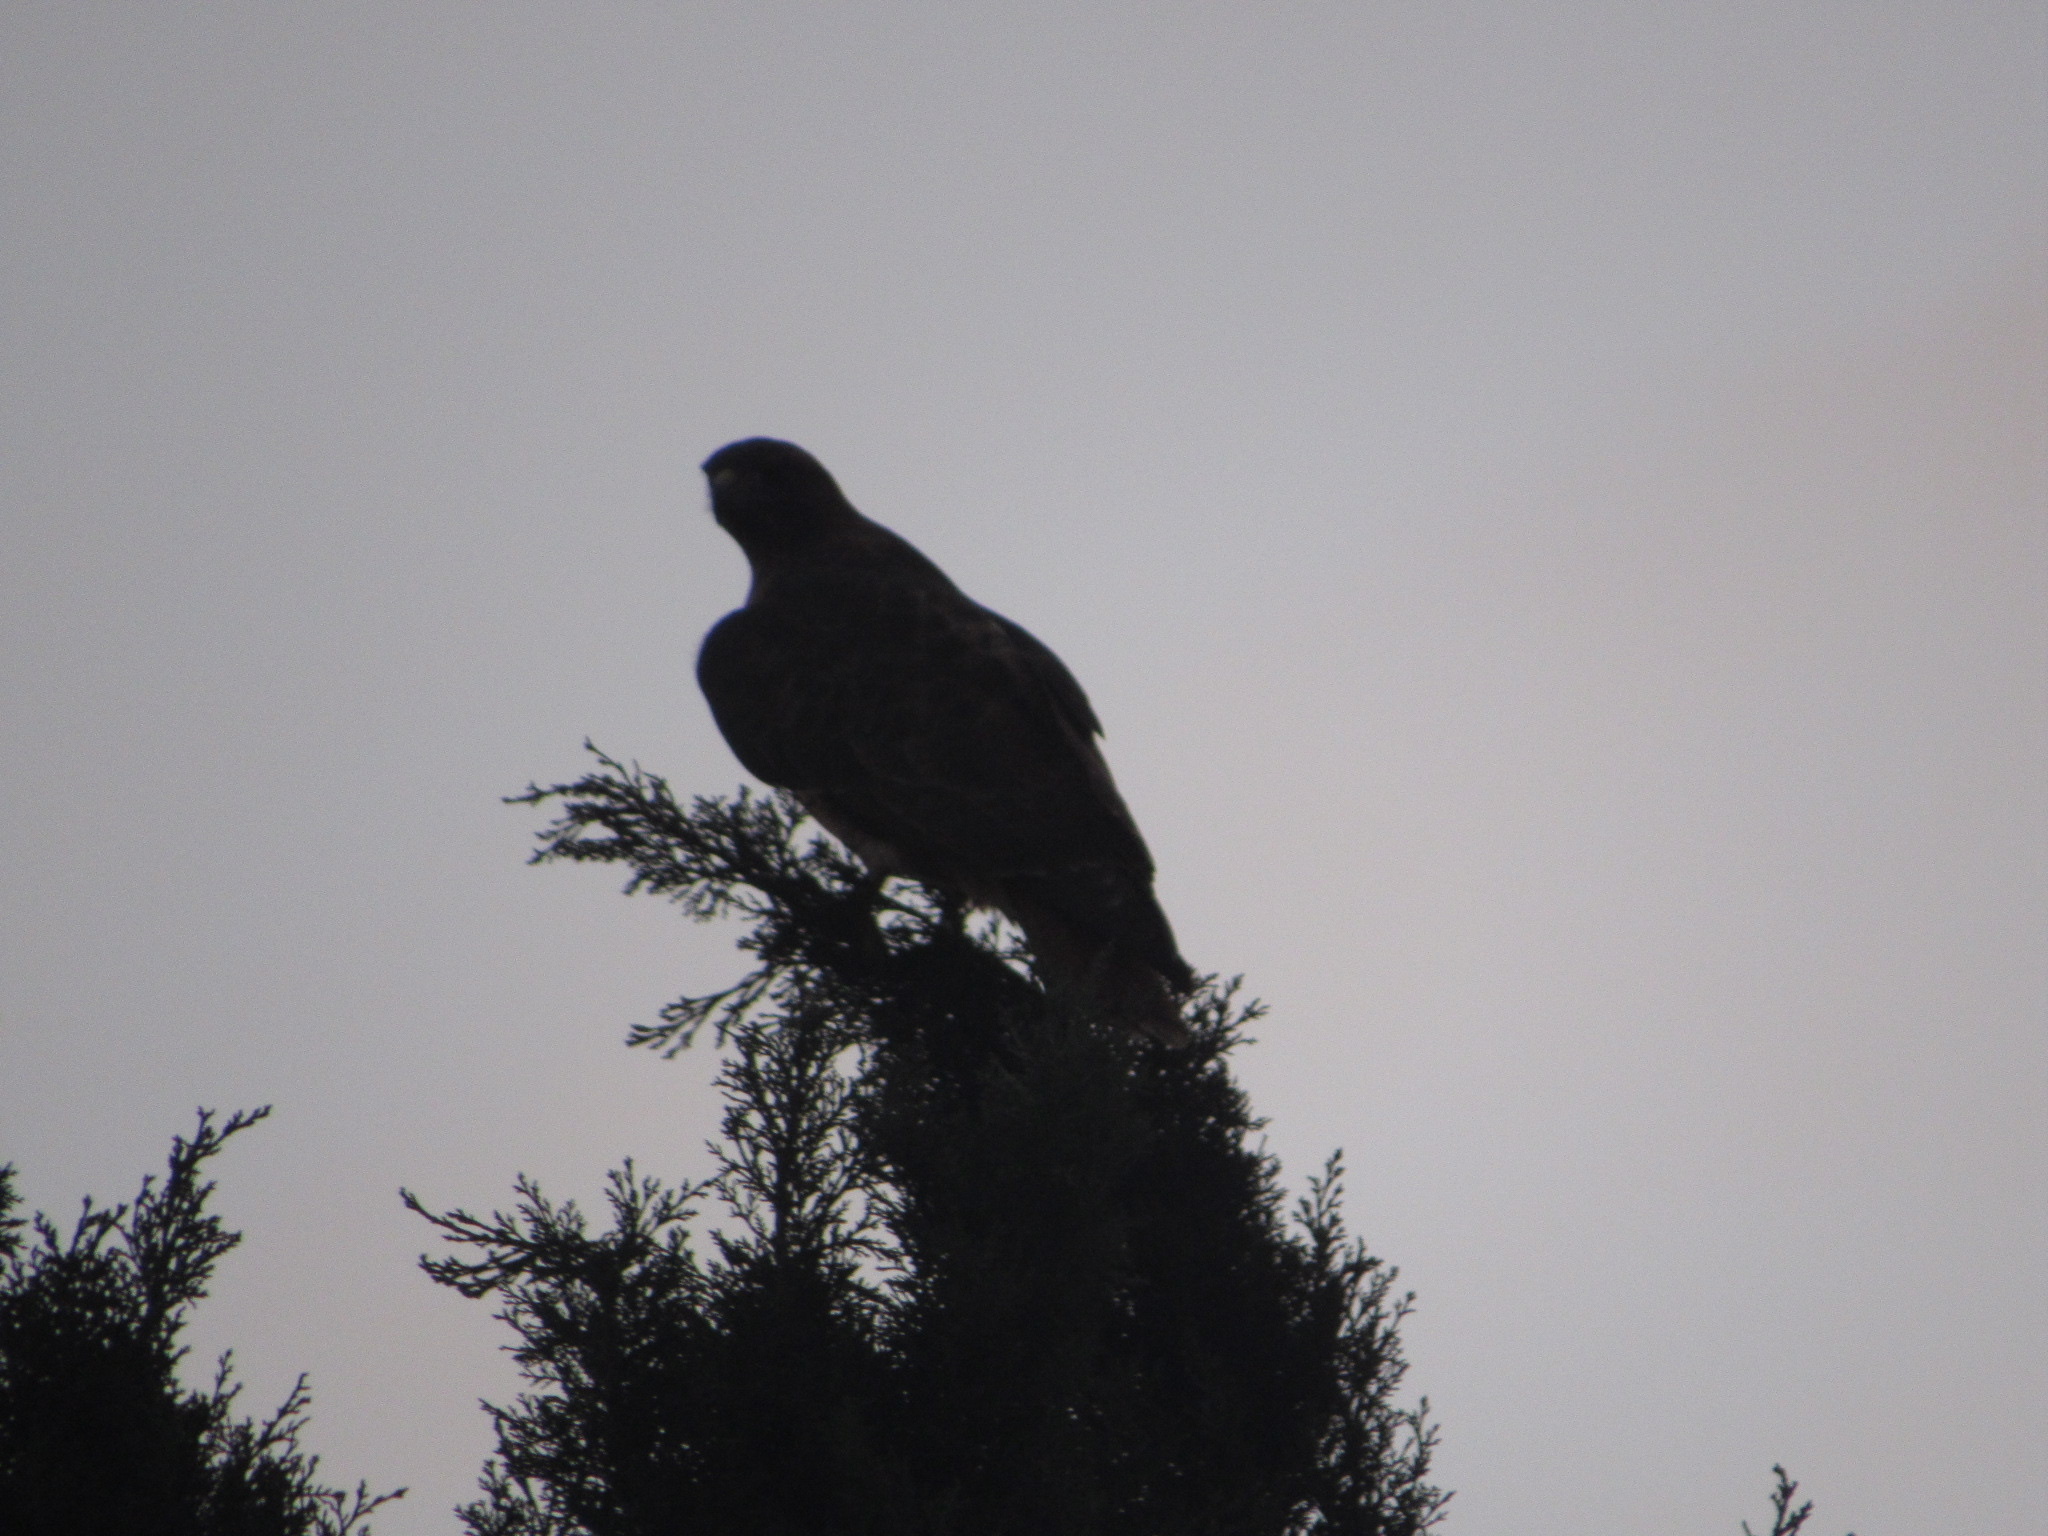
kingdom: Animalia
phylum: Chordata
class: Aves
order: Accipitriformes
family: Accipitridae
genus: Buteo
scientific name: Buteo jamaicensis
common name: Red-tailed hawk
